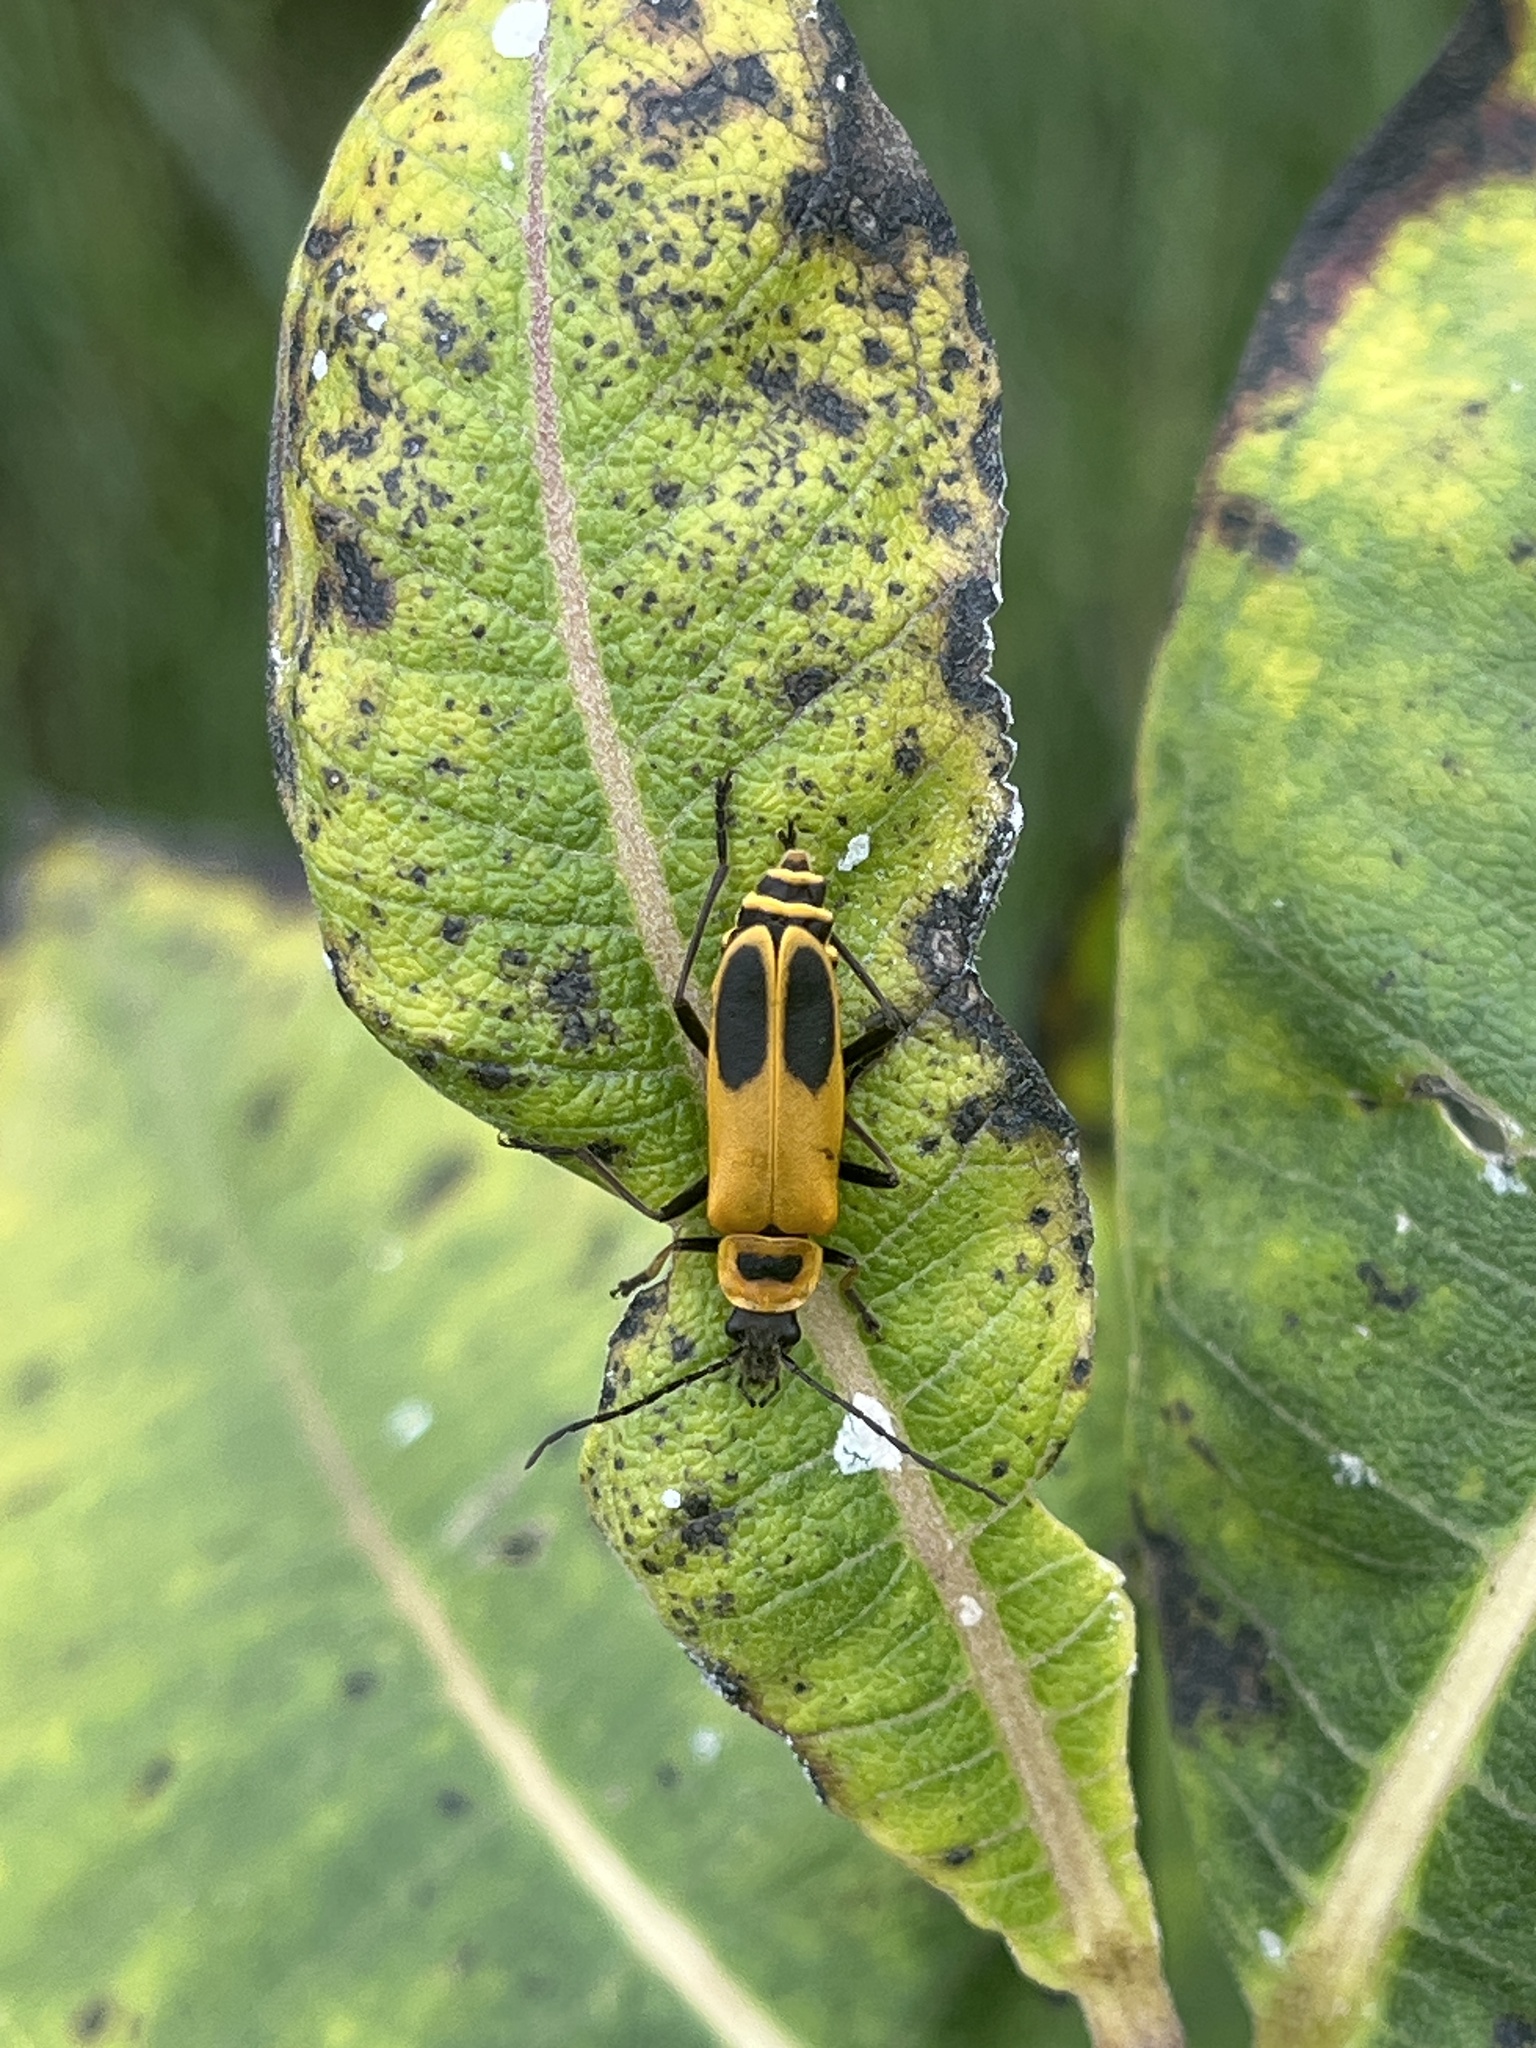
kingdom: Animalia
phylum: Arthropoda
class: Insecta
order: Coleoptera
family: Cantharidae
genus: Chauliognathus
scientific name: Chauliognathus pensylvanicus
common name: Goldenrod soldier beetle
